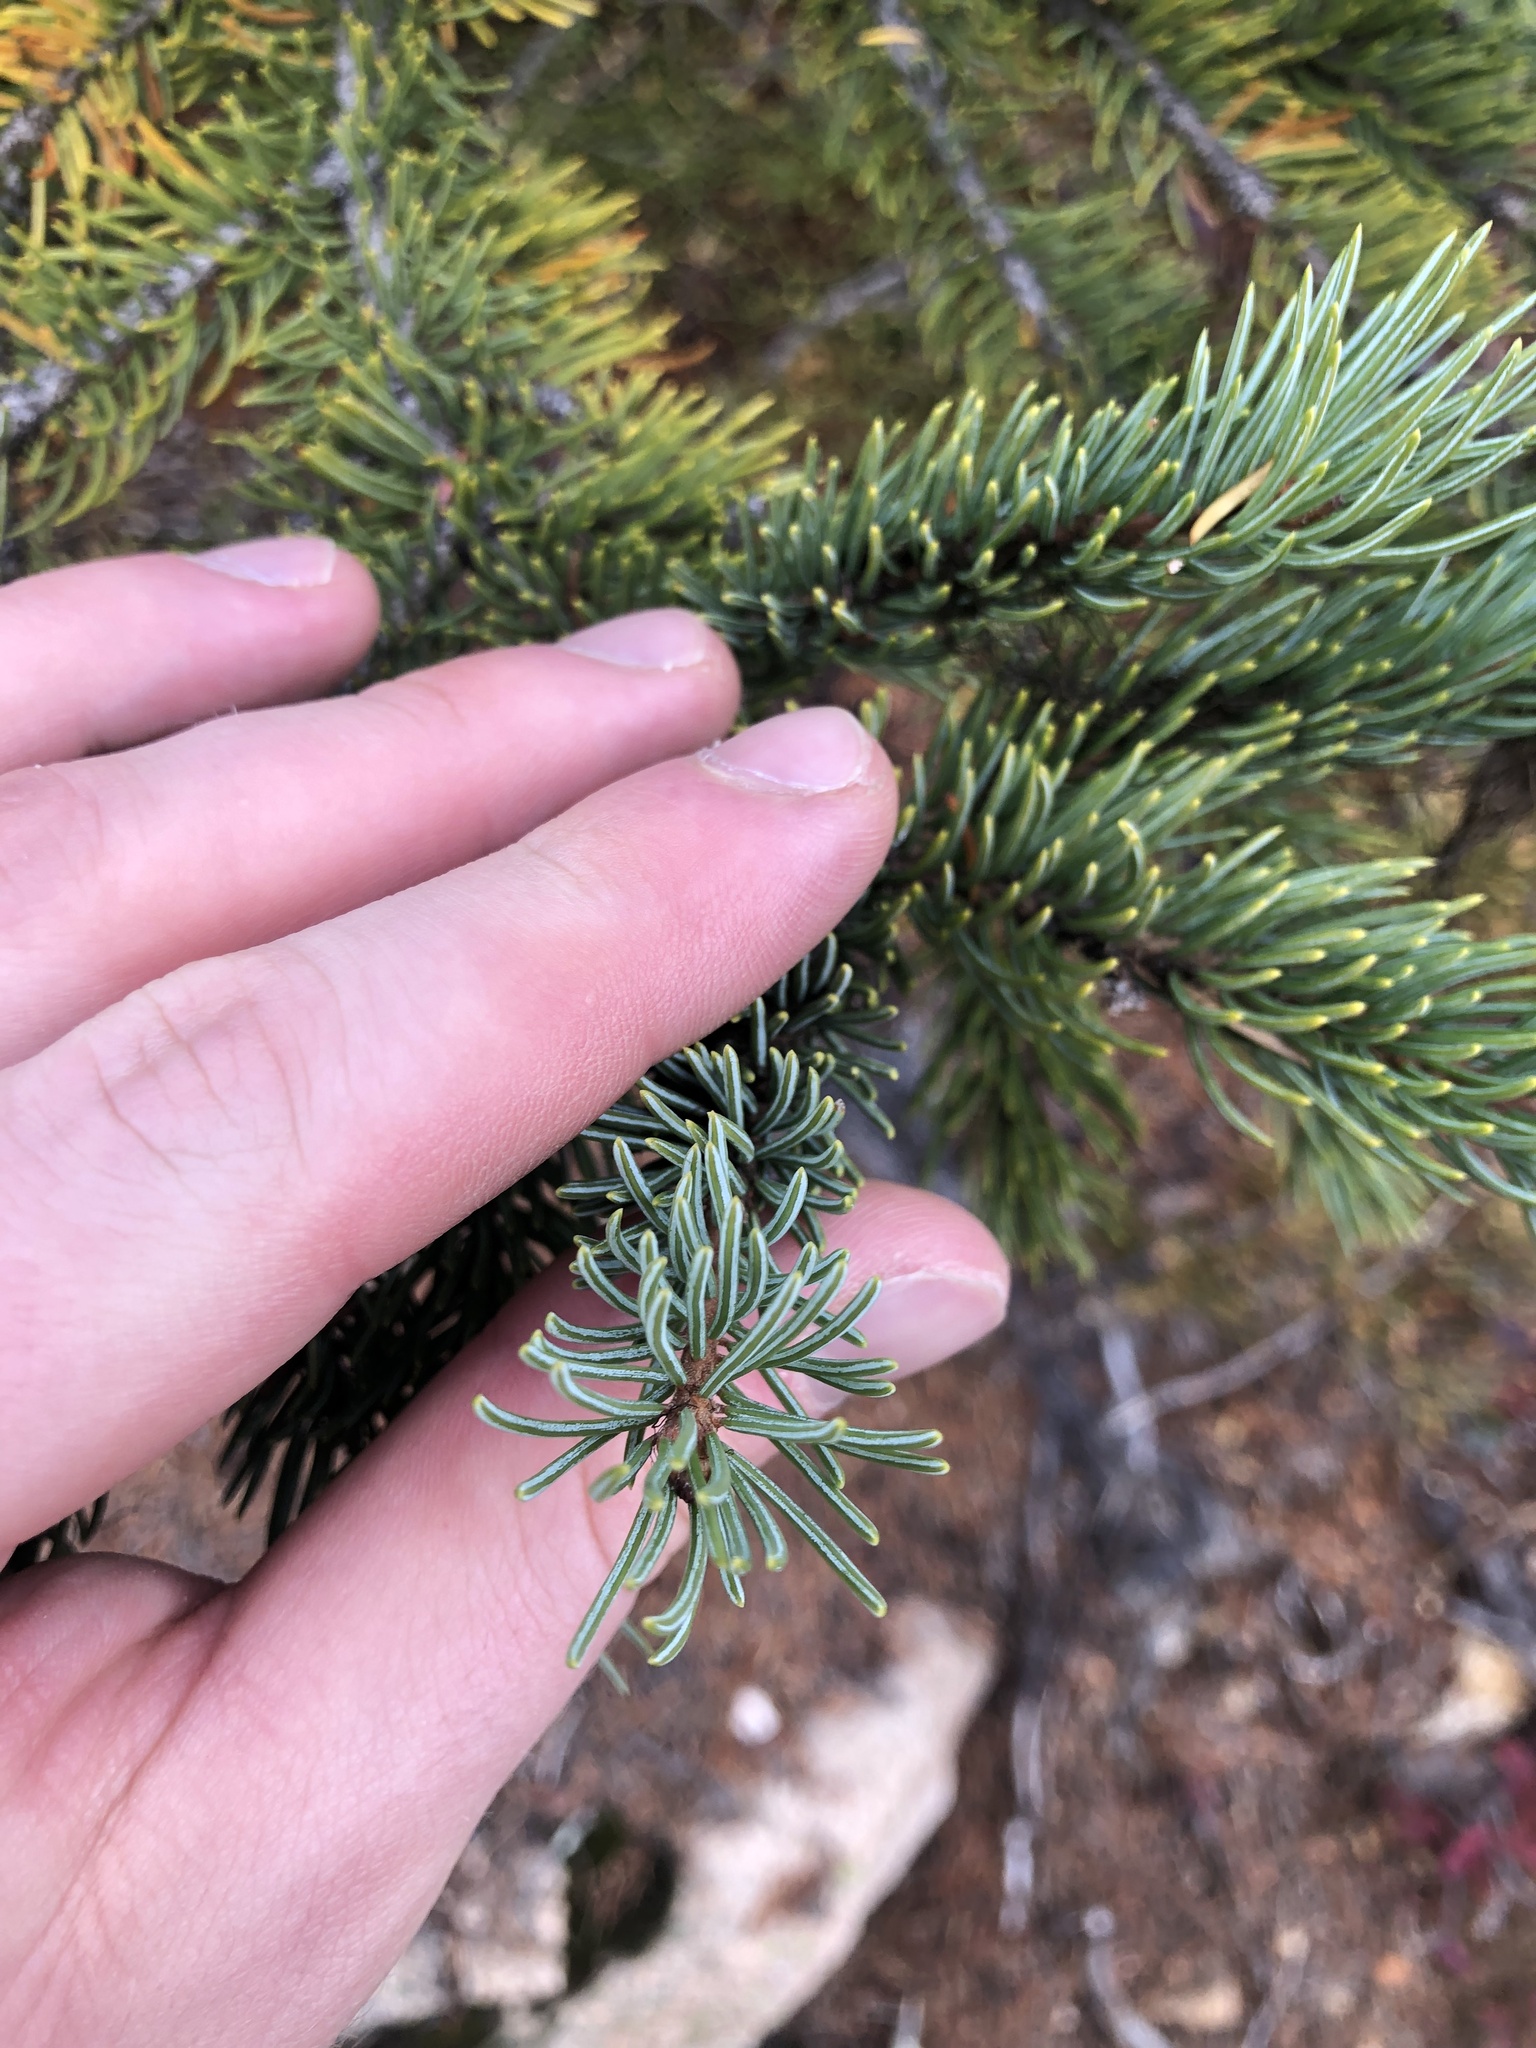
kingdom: Plantae
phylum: Tracheophyta
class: Pinopsida
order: Pinales
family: Pinaceae
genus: Picea
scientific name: Picea engelmannii
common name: Engelmann spruce
